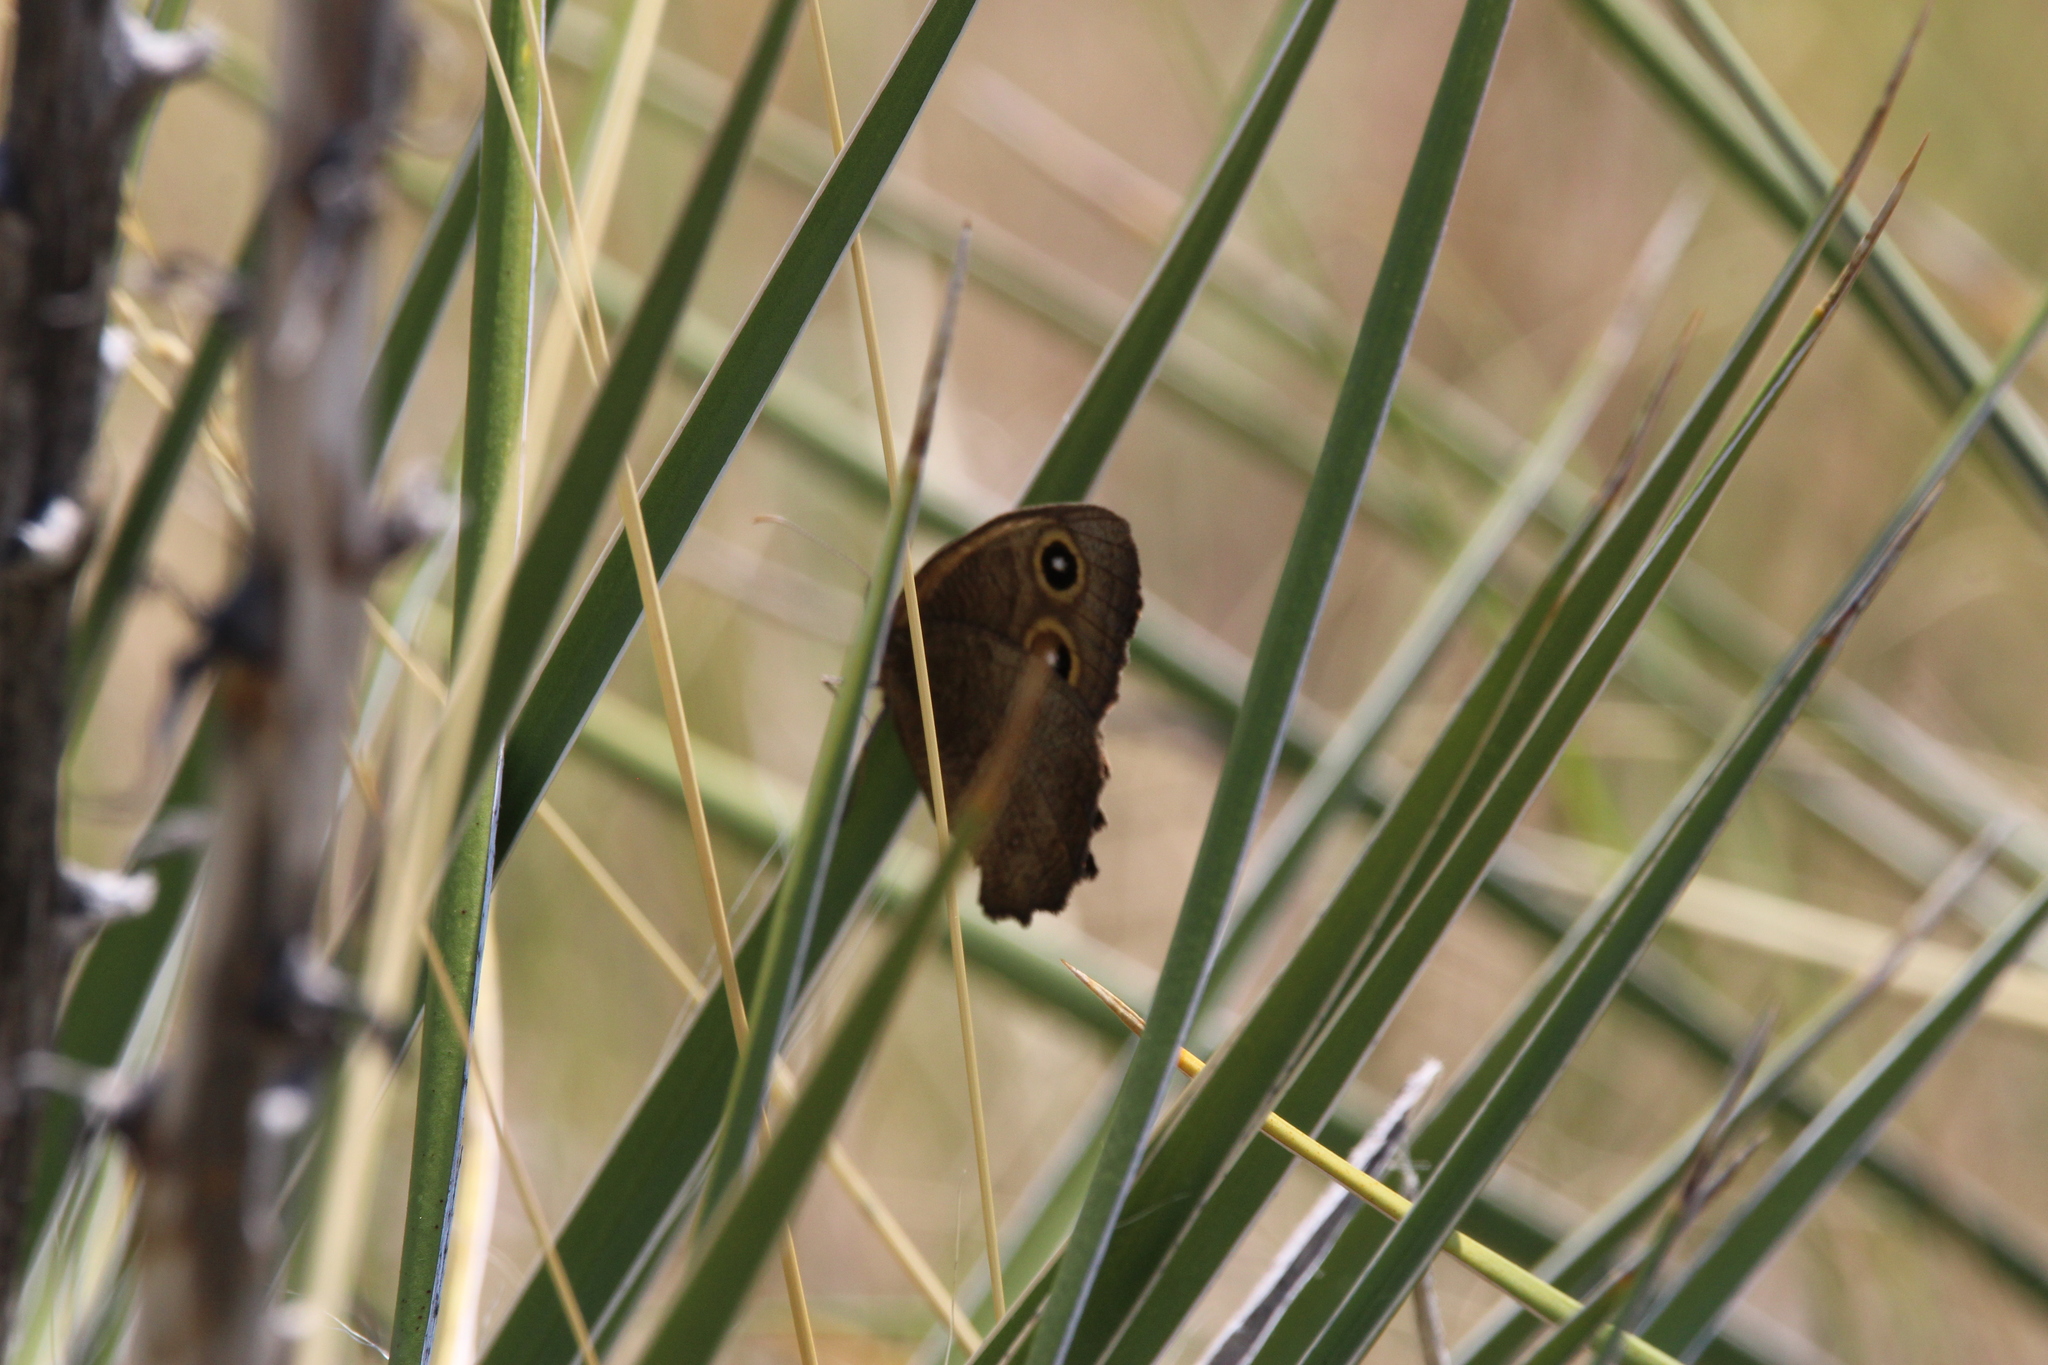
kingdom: Animalia
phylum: Arthropoda
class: Insecta
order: Lepidoptera
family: Nymphalidae
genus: Cercyonis
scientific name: Cercyonis pegala
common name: Common wood-nymph
